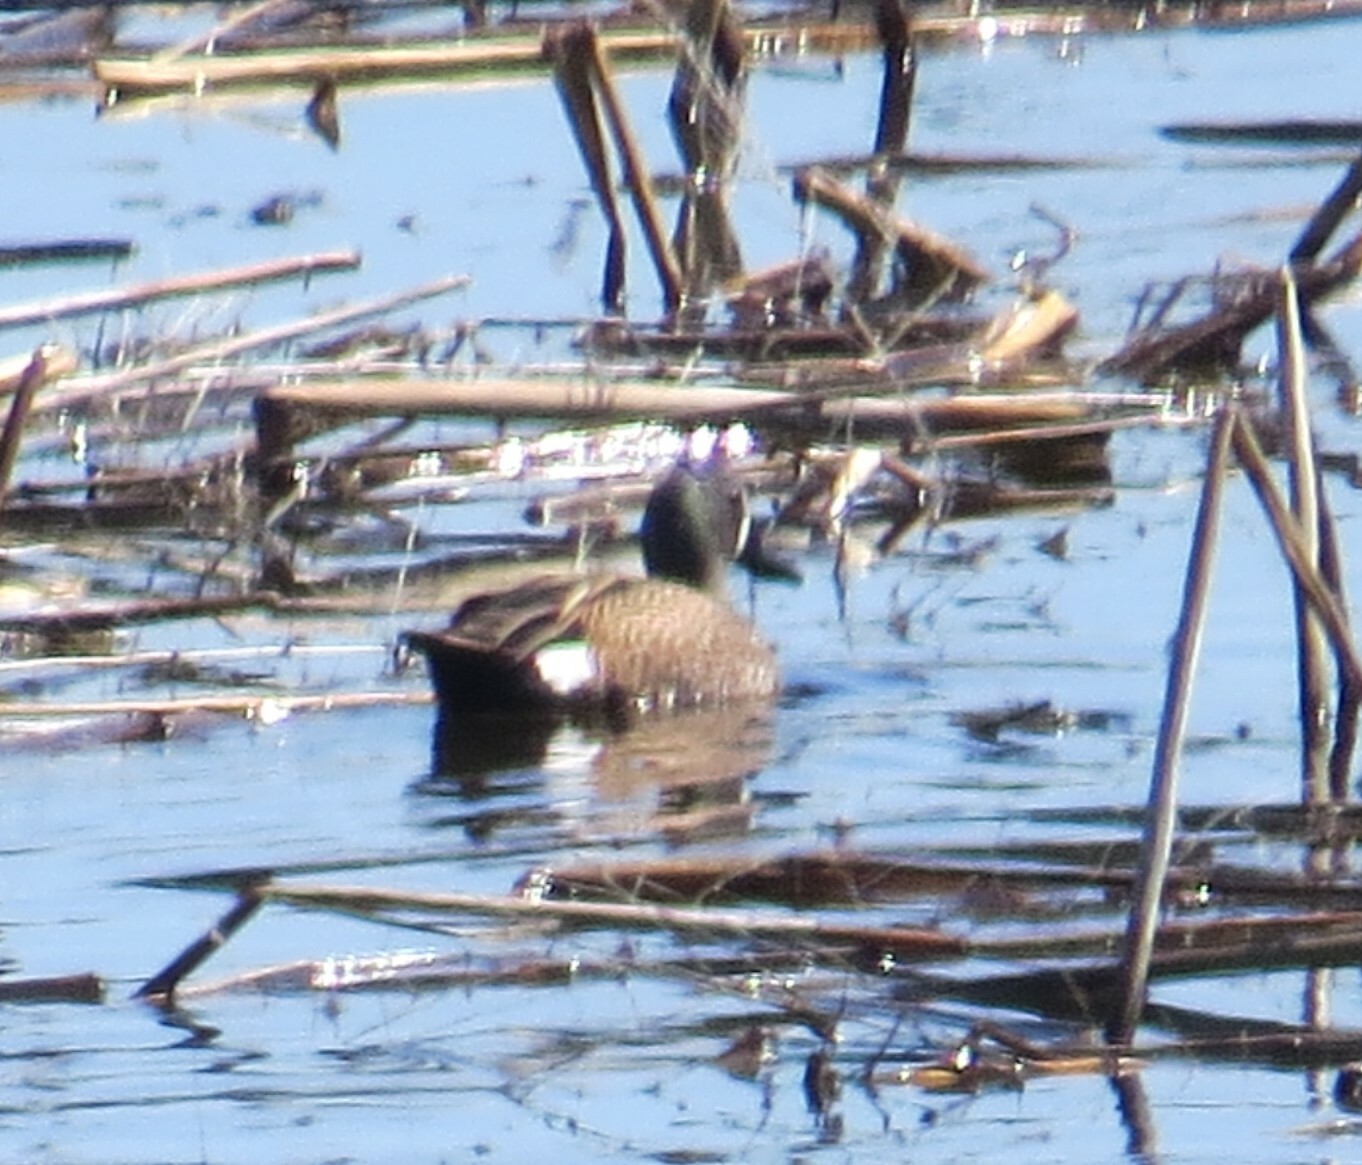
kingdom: Animalia
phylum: Chordata
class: Aves
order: Anseriformes
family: Anatidae
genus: Spatula
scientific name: Spatula discors
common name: Blue-winged teal
